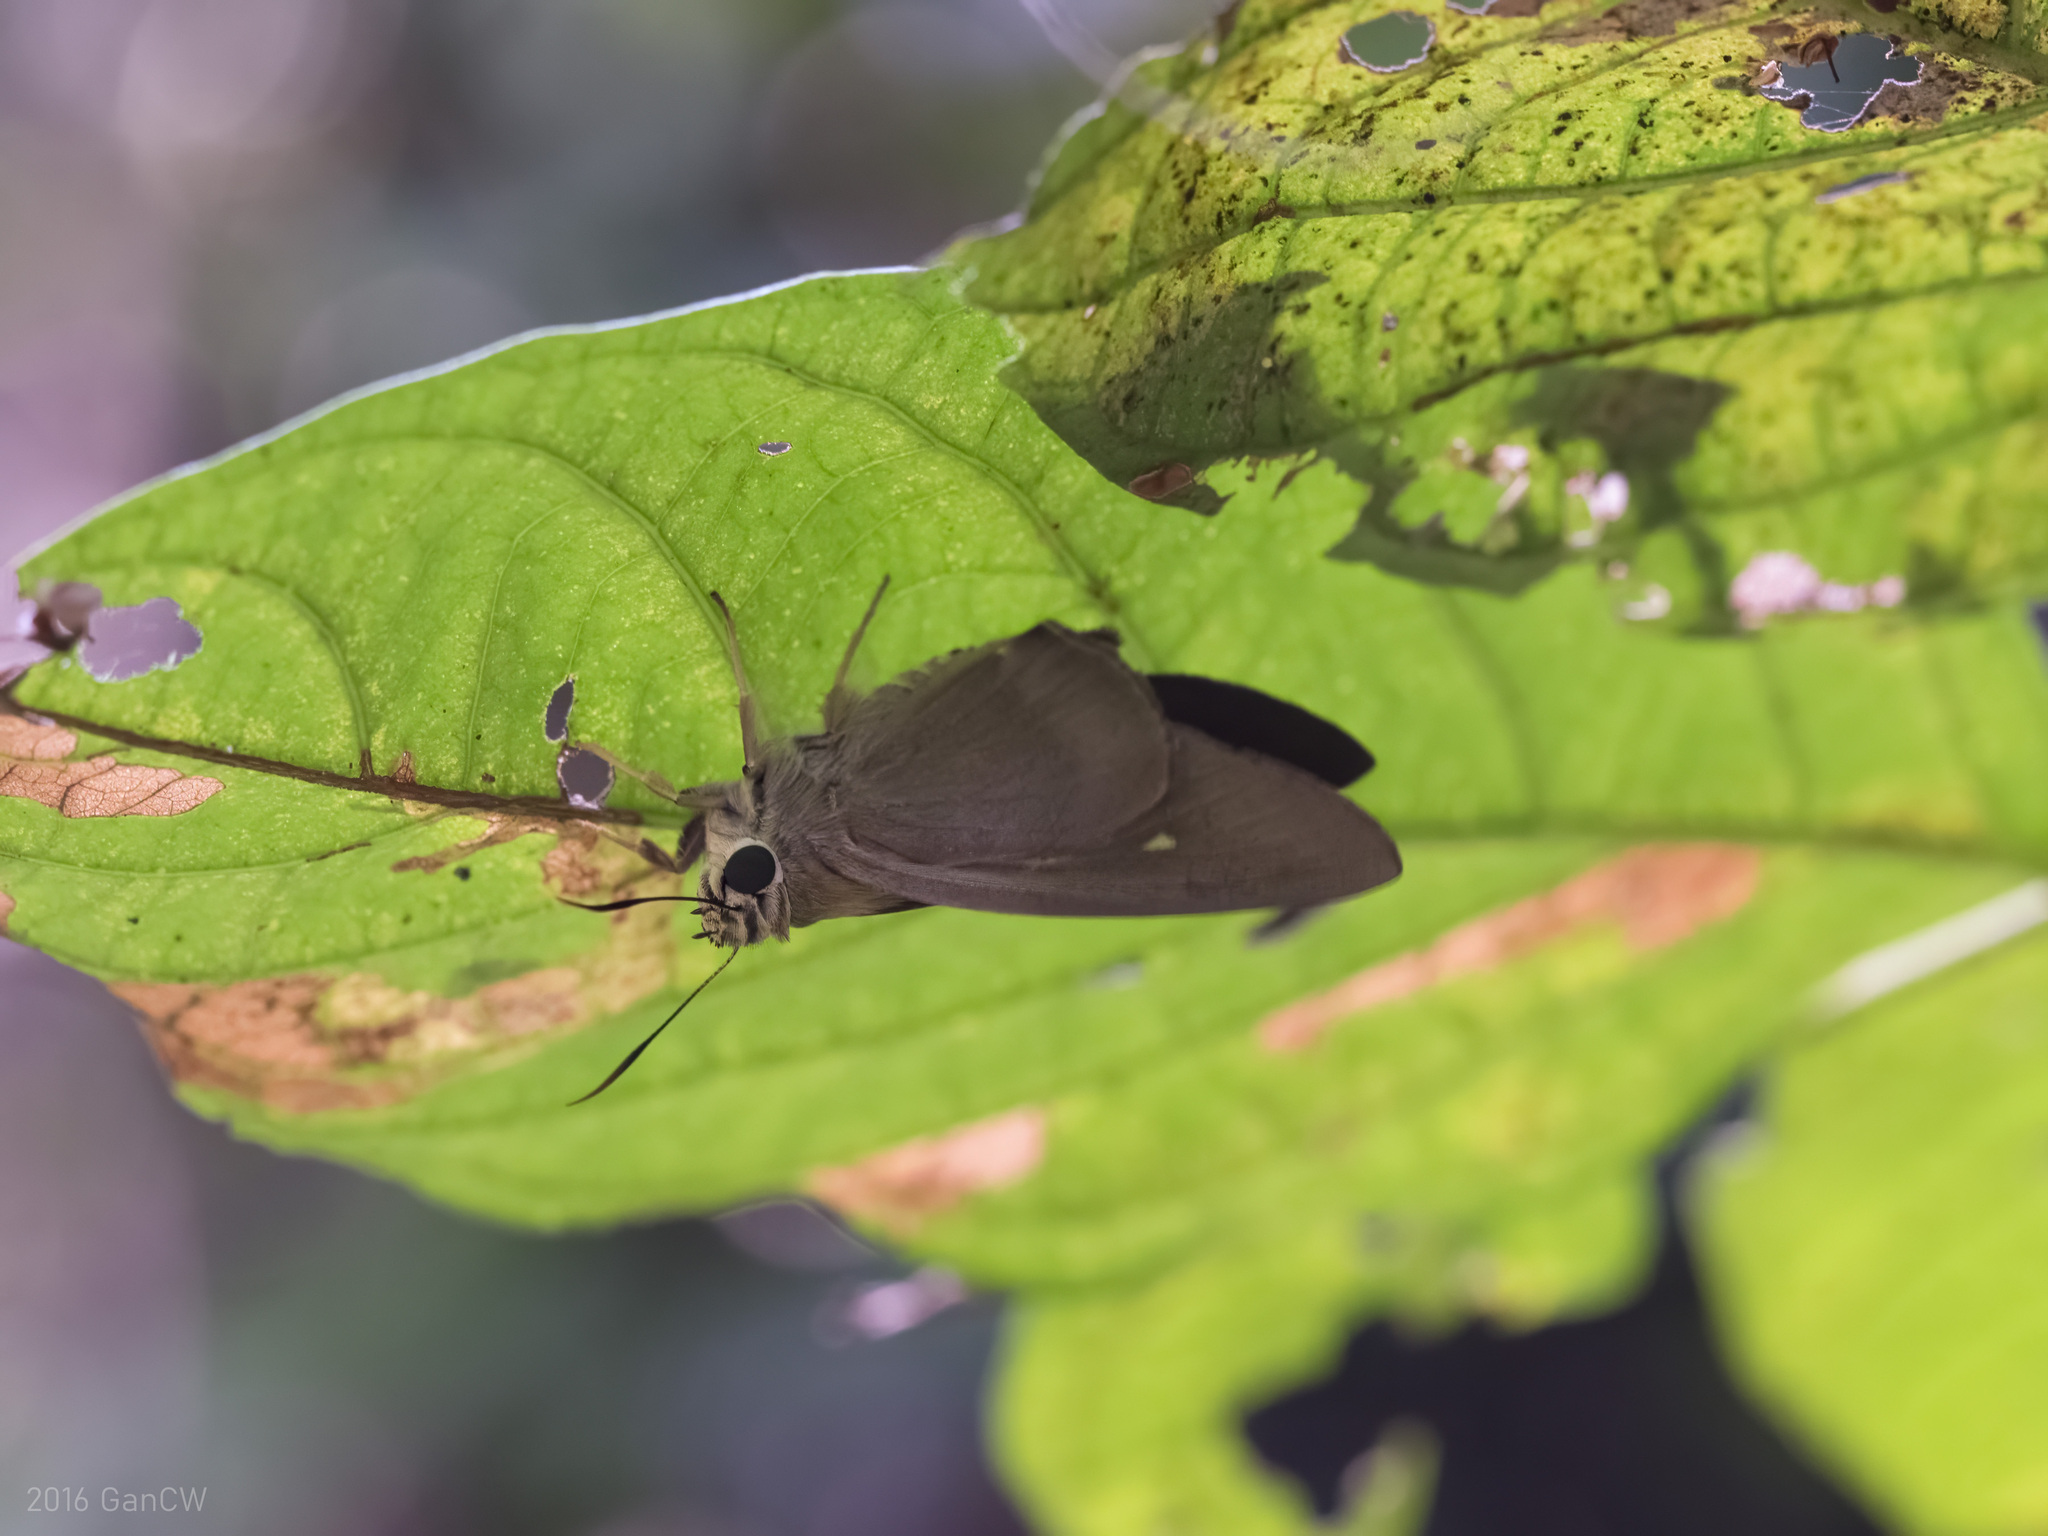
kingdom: Animalia
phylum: Arthropoda
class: Insecta
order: Lepidoptera
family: Hesperiidae
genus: Badamia
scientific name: Badamia exclamationis
